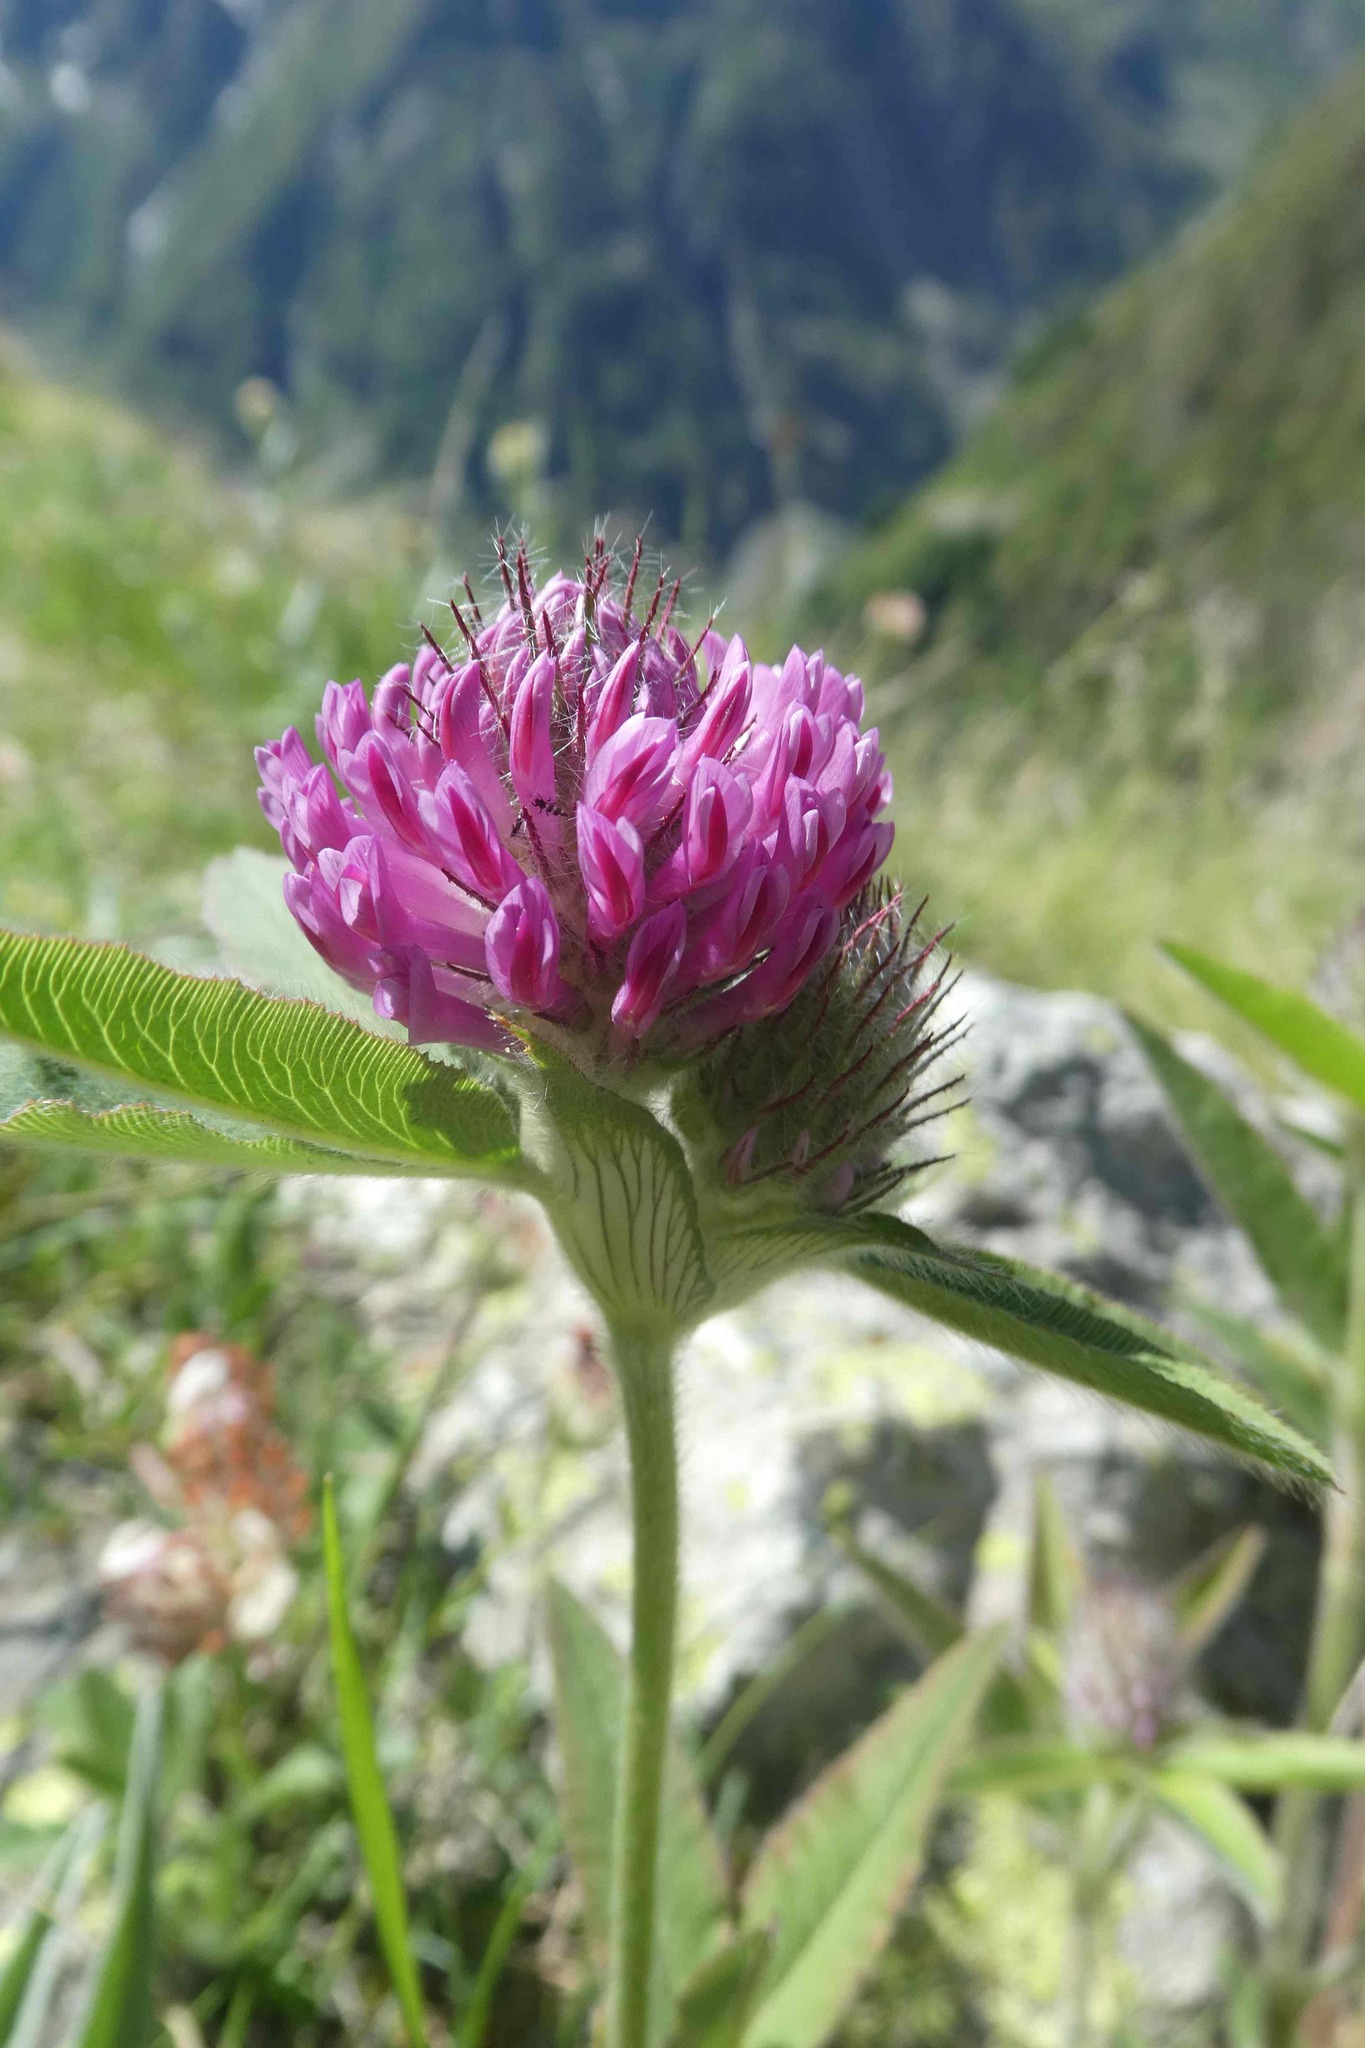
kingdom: Plantae
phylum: Tracheophyta
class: Magnoliopsida
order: Fabales
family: Fabaceae
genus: Trifolium
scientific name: Trifolium alpestre
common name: Owl-head clover
